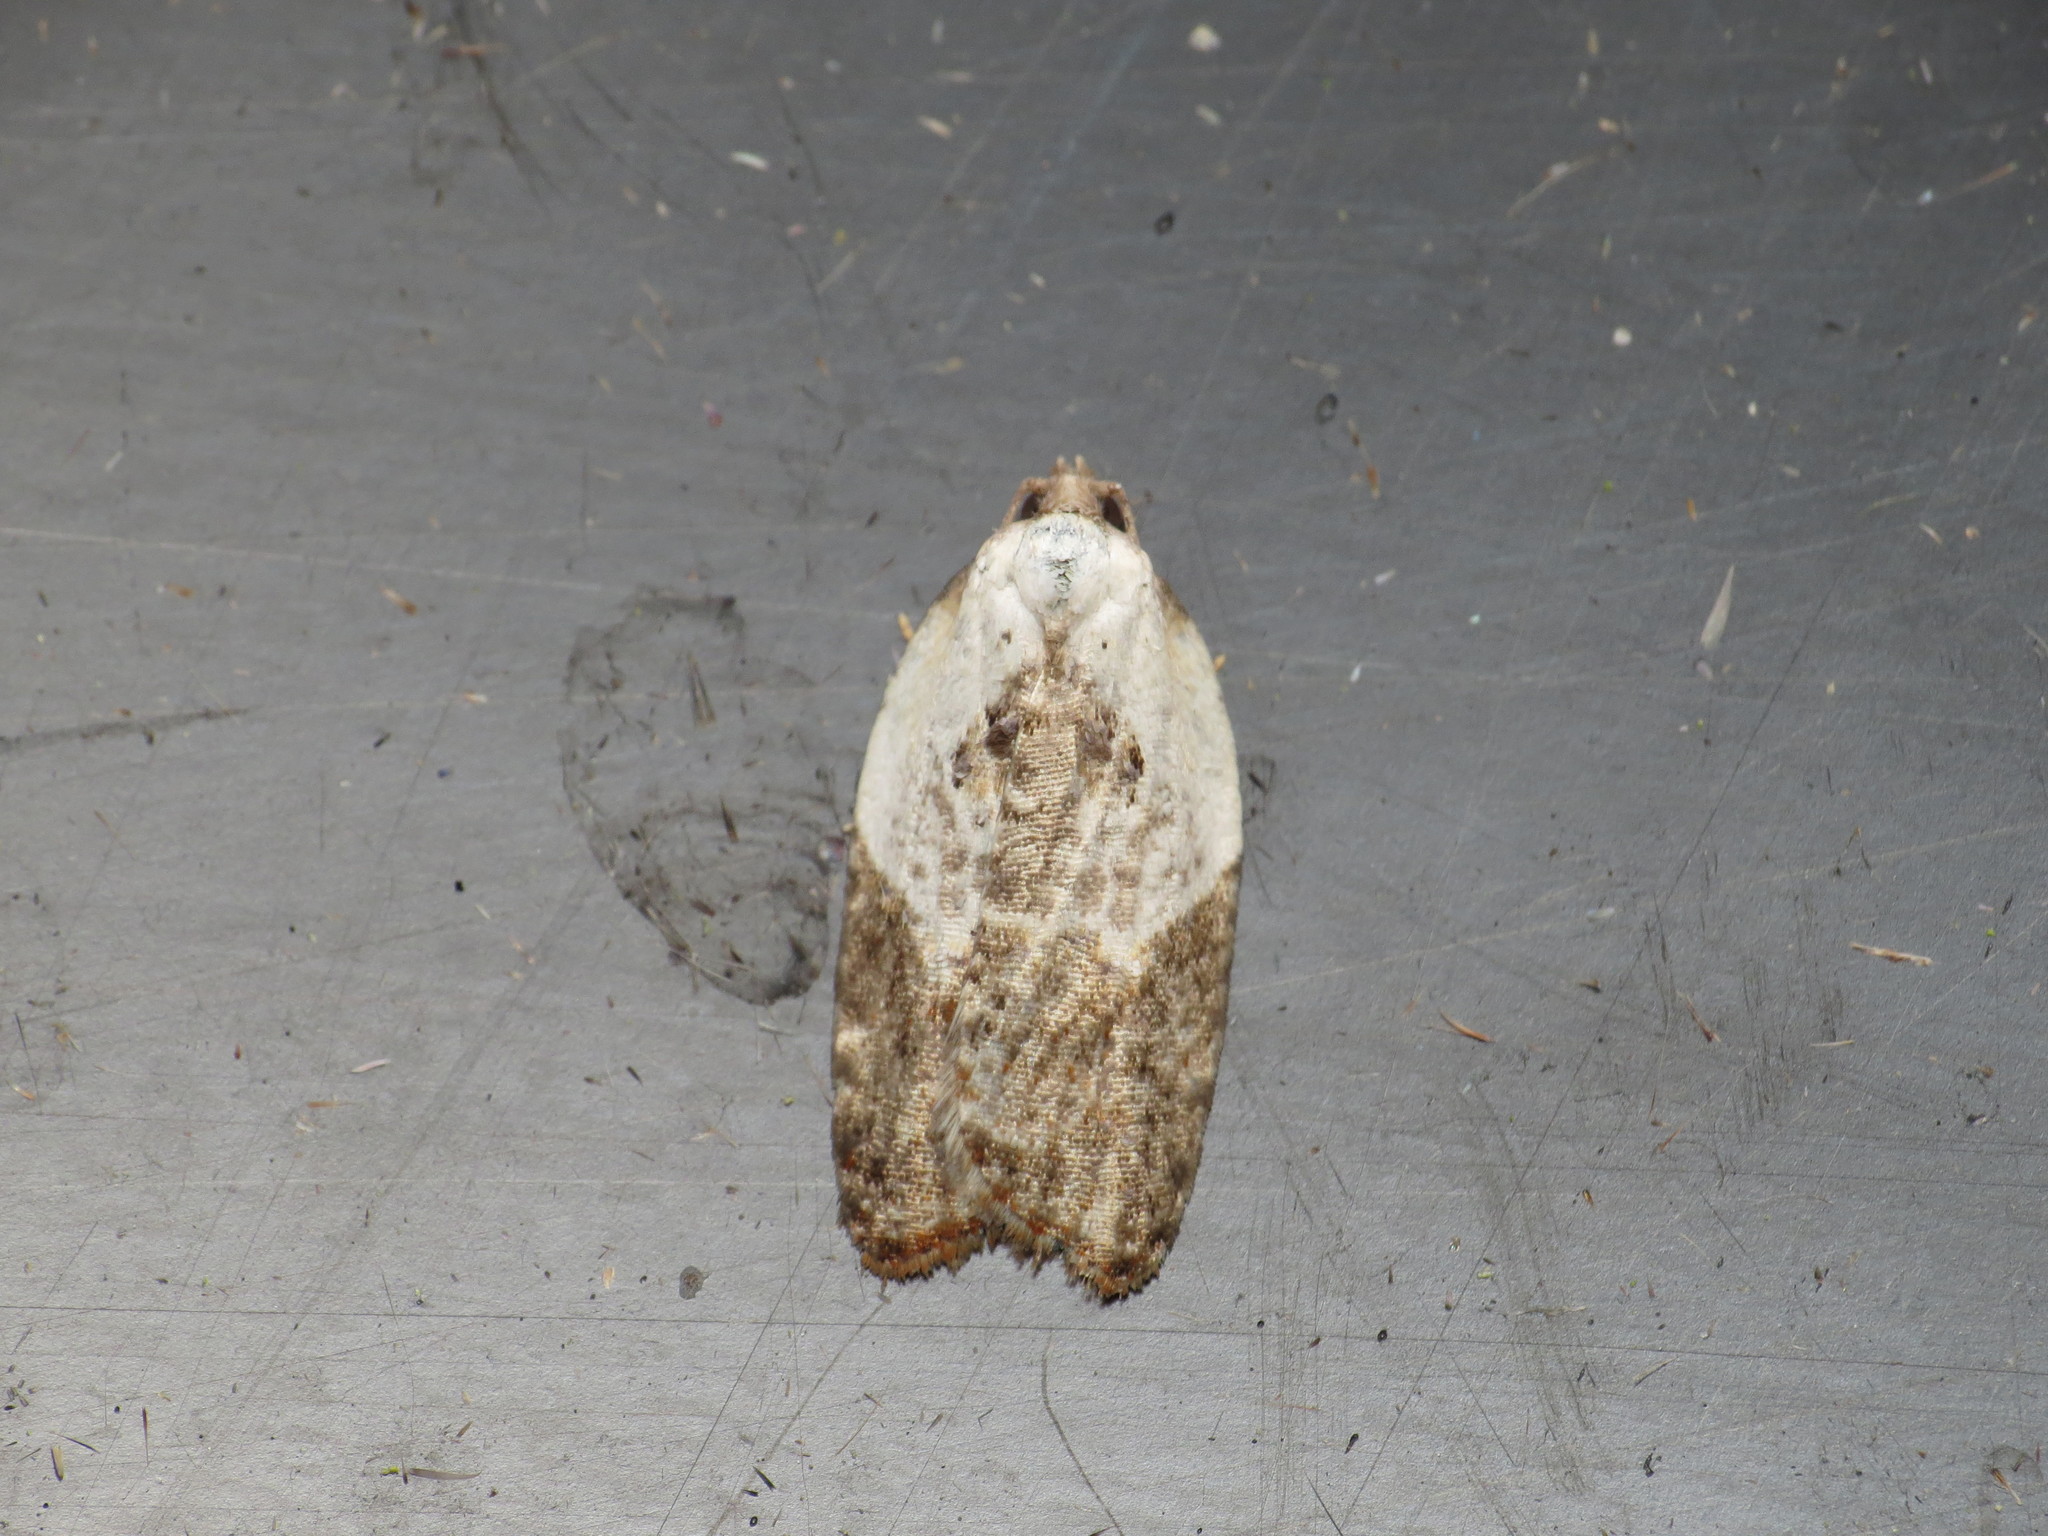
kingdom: Animalia
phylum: Arthropoda
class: Insecta
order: Lepidoptera
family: Tortricidae
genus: Acleris
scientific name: Acleris variegana
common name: Garden rose tortrix
